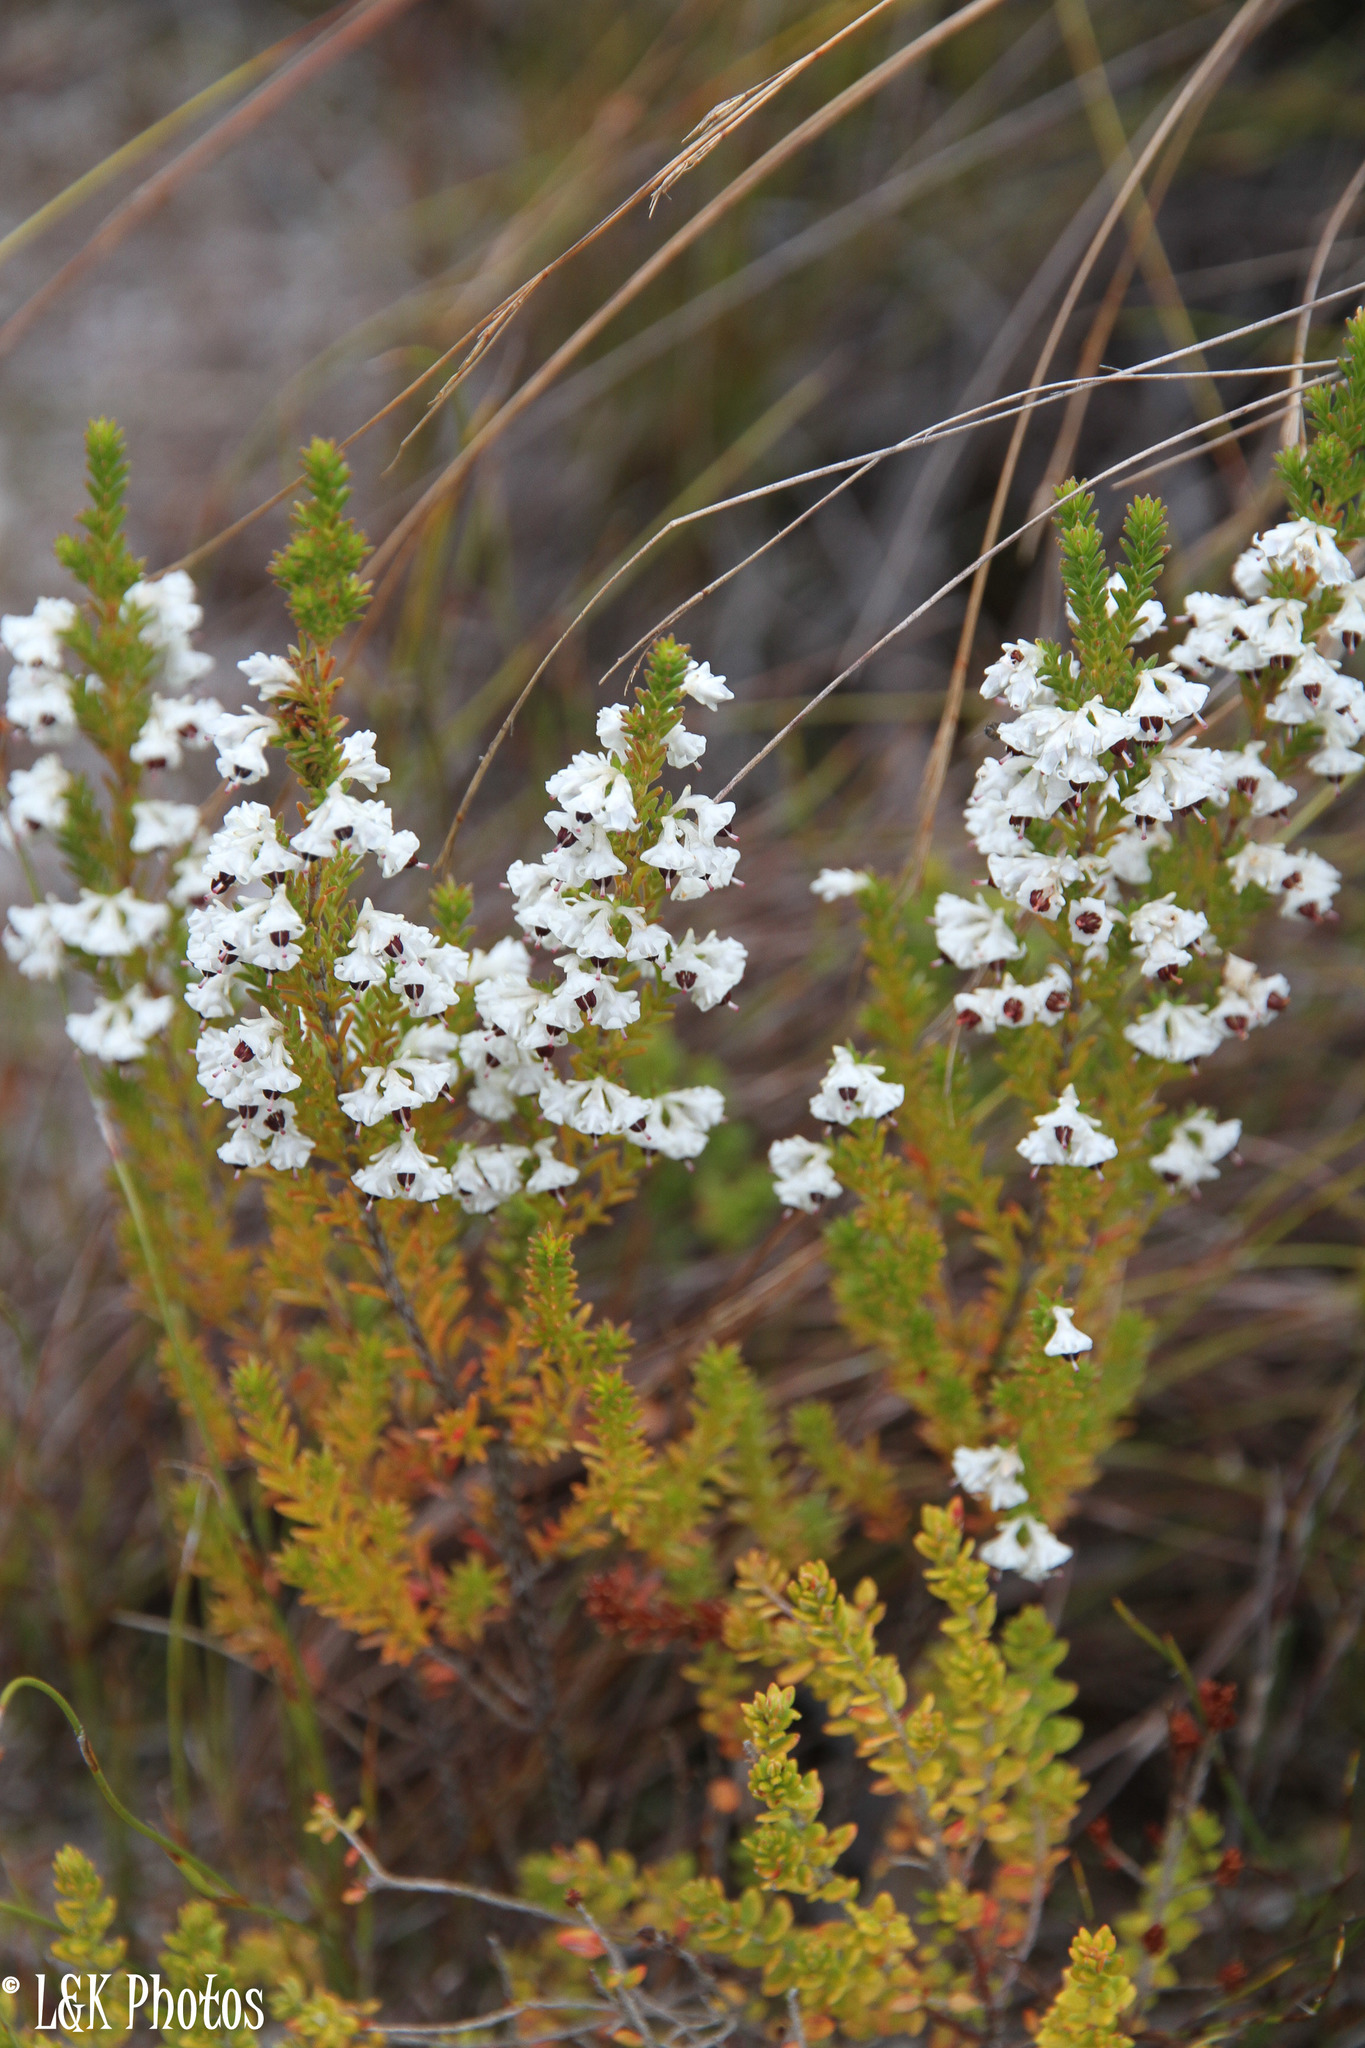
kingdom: Plantae
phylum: Tracheophyta
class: Magnoliopsida
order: Ericales
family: Ericaceae
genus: Erica
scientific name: Erica calycina
